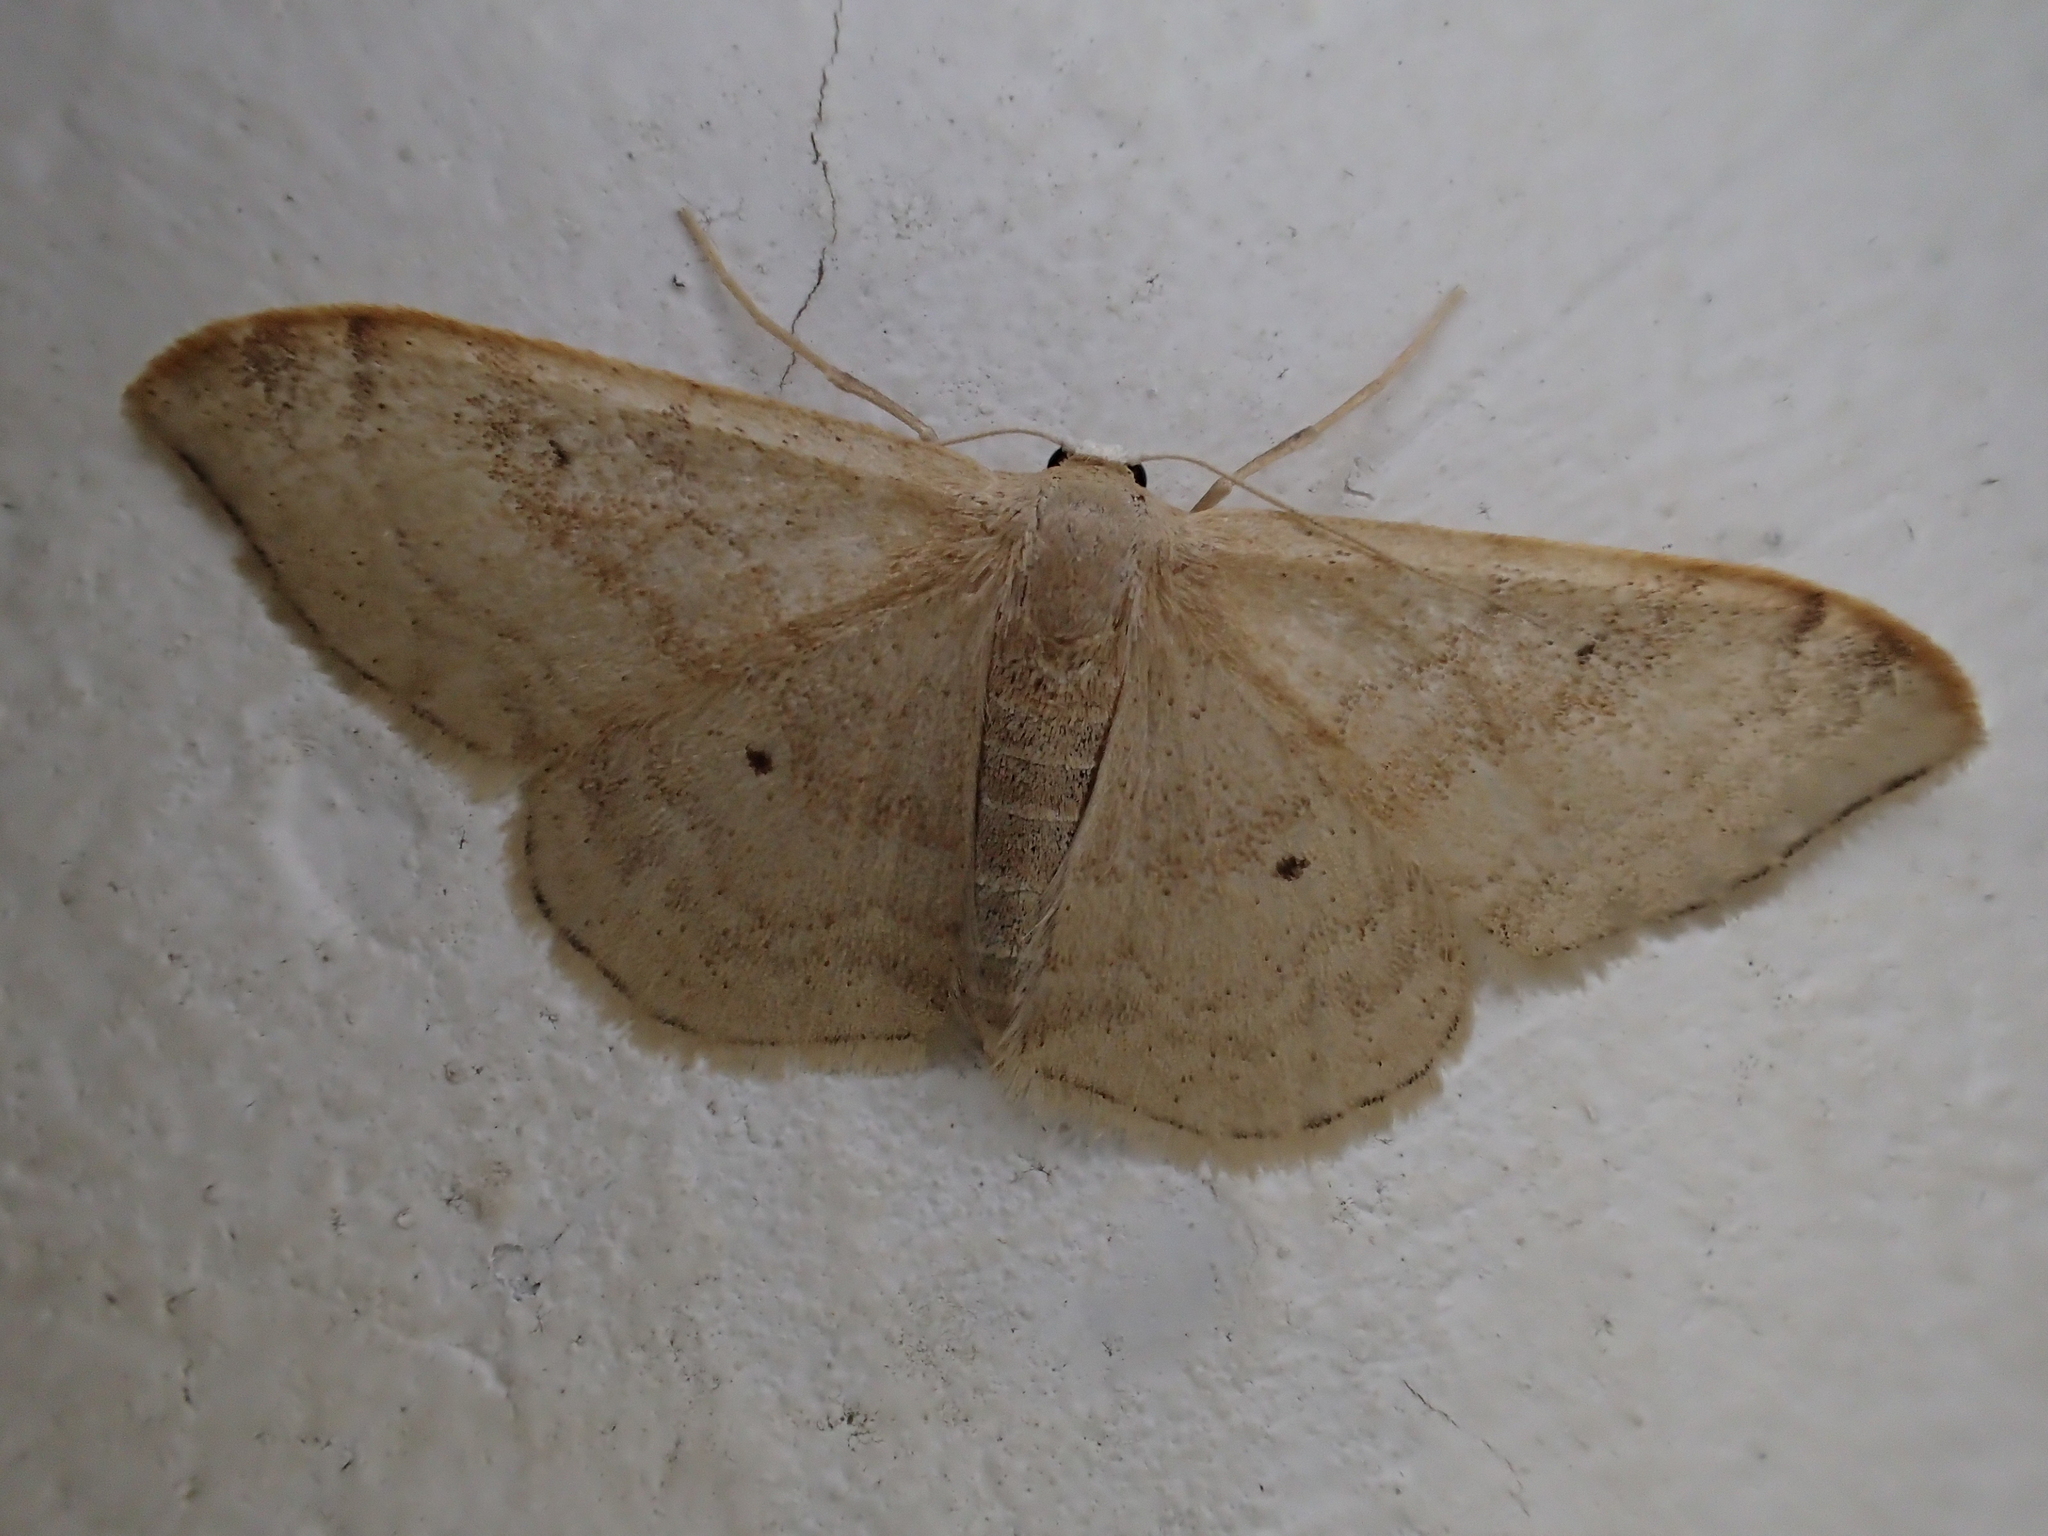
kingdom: Animalia
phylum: Arthropoda
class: Insecta
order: Lepidoptera
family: Geometridae
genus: Idaea
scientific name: Idaea degeneraria
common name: Portland ribbon wave
